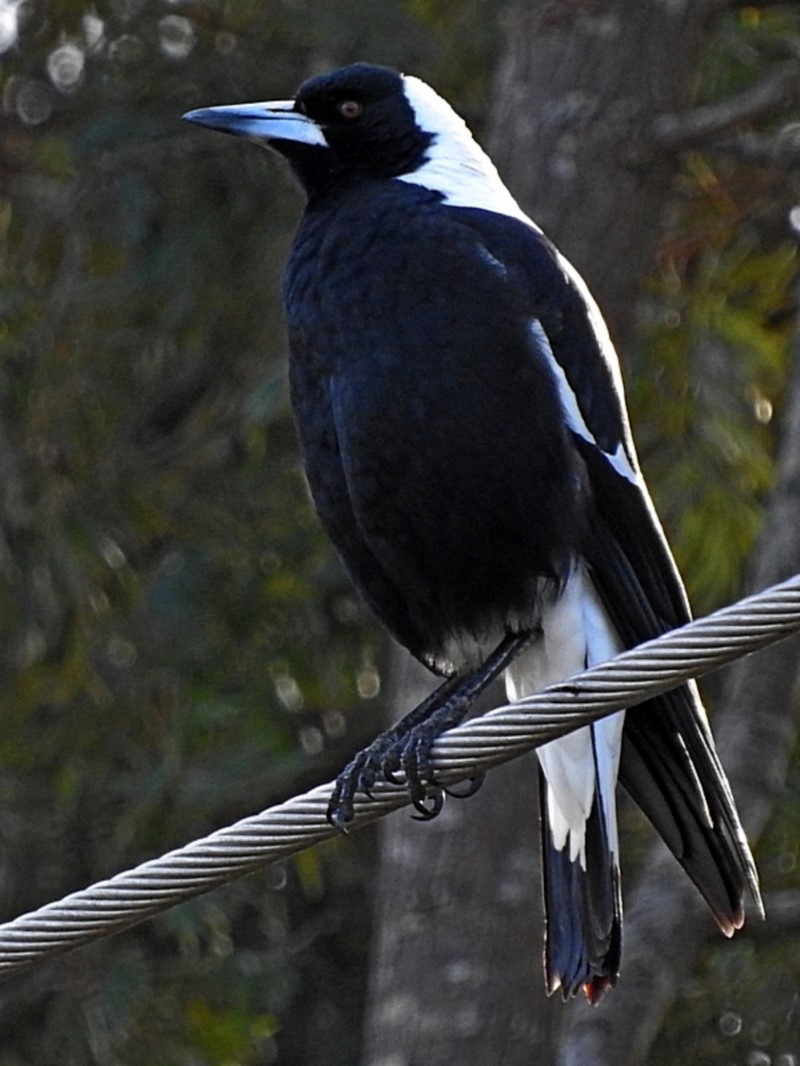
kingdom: Animalia
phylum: Chordata
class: Aves
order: Passeriformes
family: Cracticidae
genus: Gymnorhina
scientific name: Gymnorhina tibicen
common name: Australian magpie
